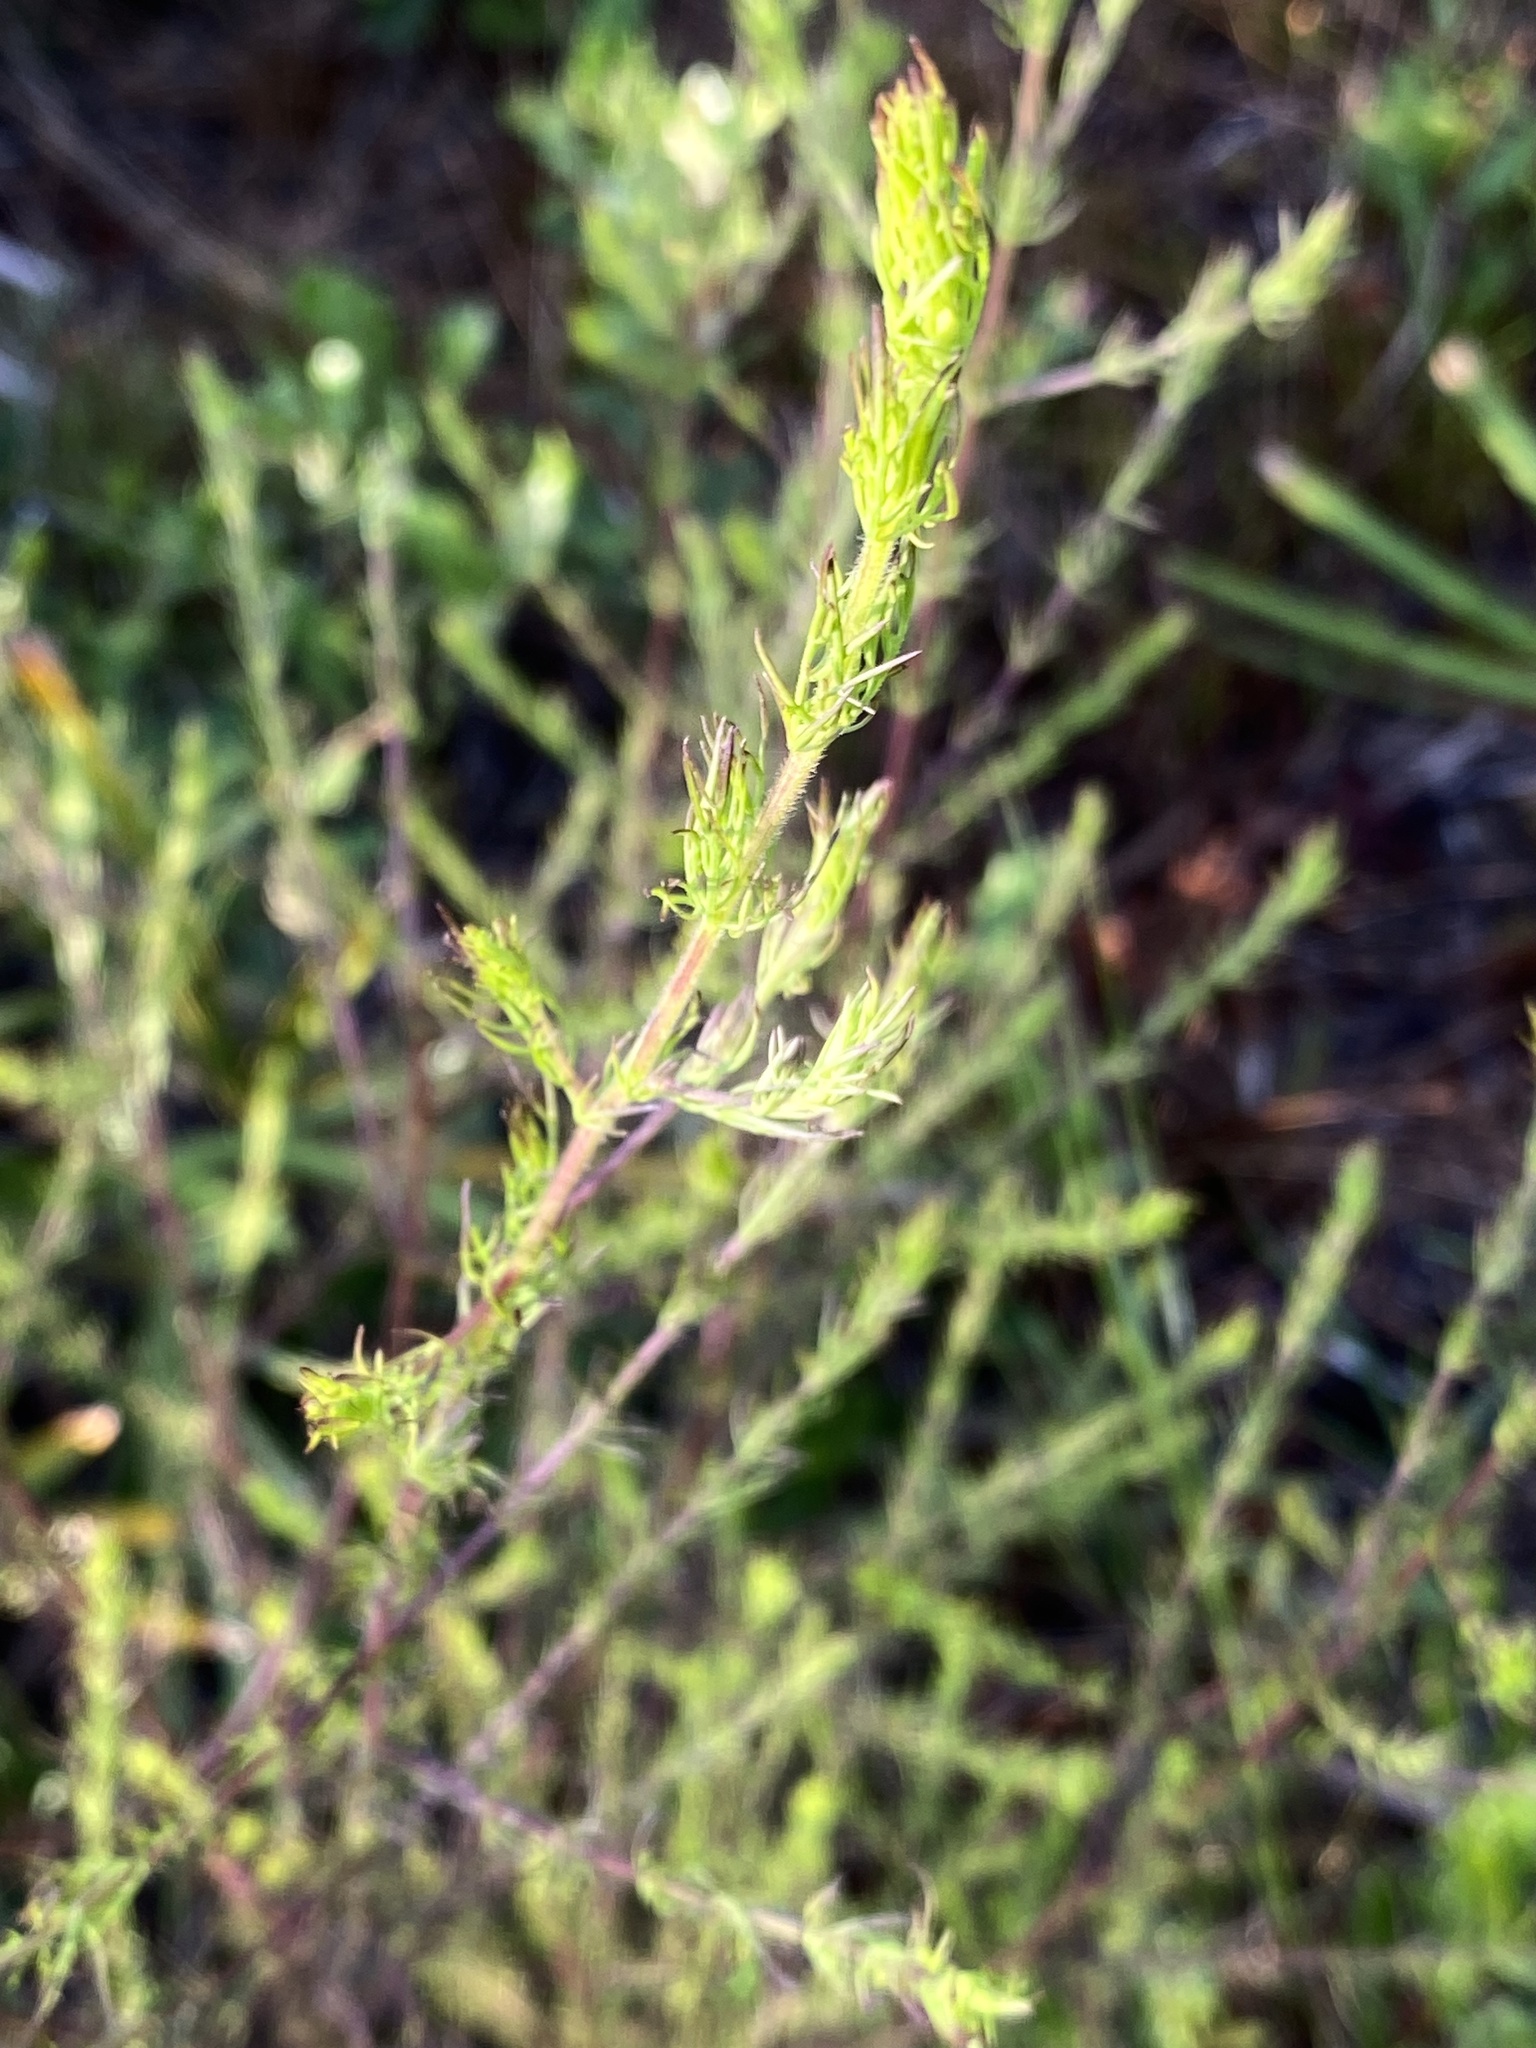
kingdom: Plantae
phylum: Tracheophyta
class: Magnoliopsida
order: Lamiales
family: Orobanchaceae
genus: Seymeria
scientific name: Seymeria cassioides
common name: Yaupon black-senna
